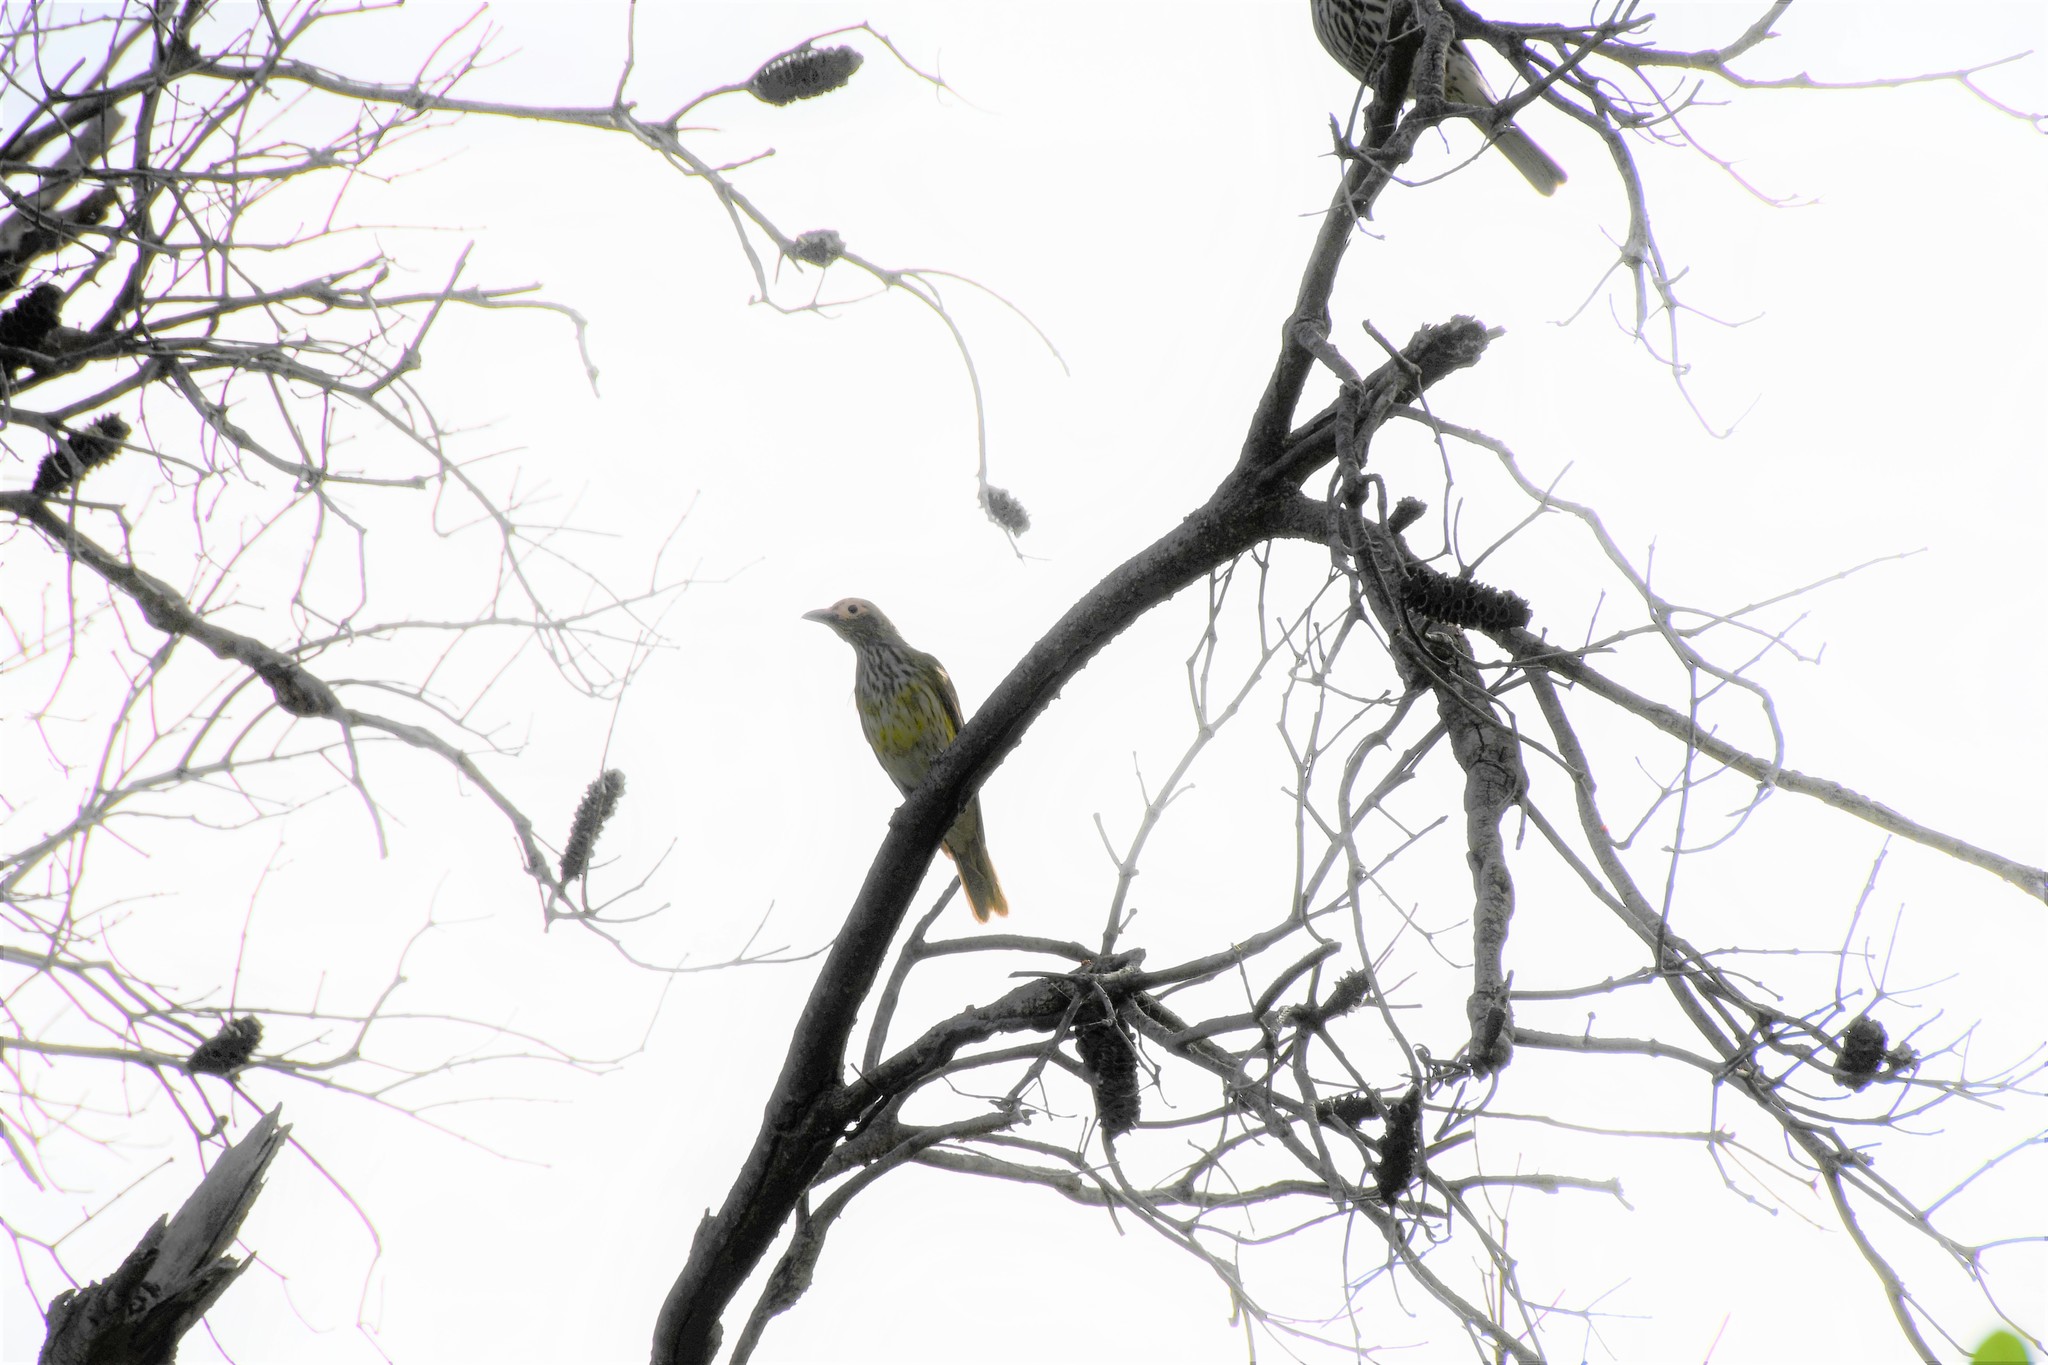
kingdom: Animalia
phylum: Chordata
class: Aves
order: Passeriformes
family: Oriolidae
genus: Sphecotheres
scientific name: Sphecotheres vieilloti
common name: Australasian figbird
